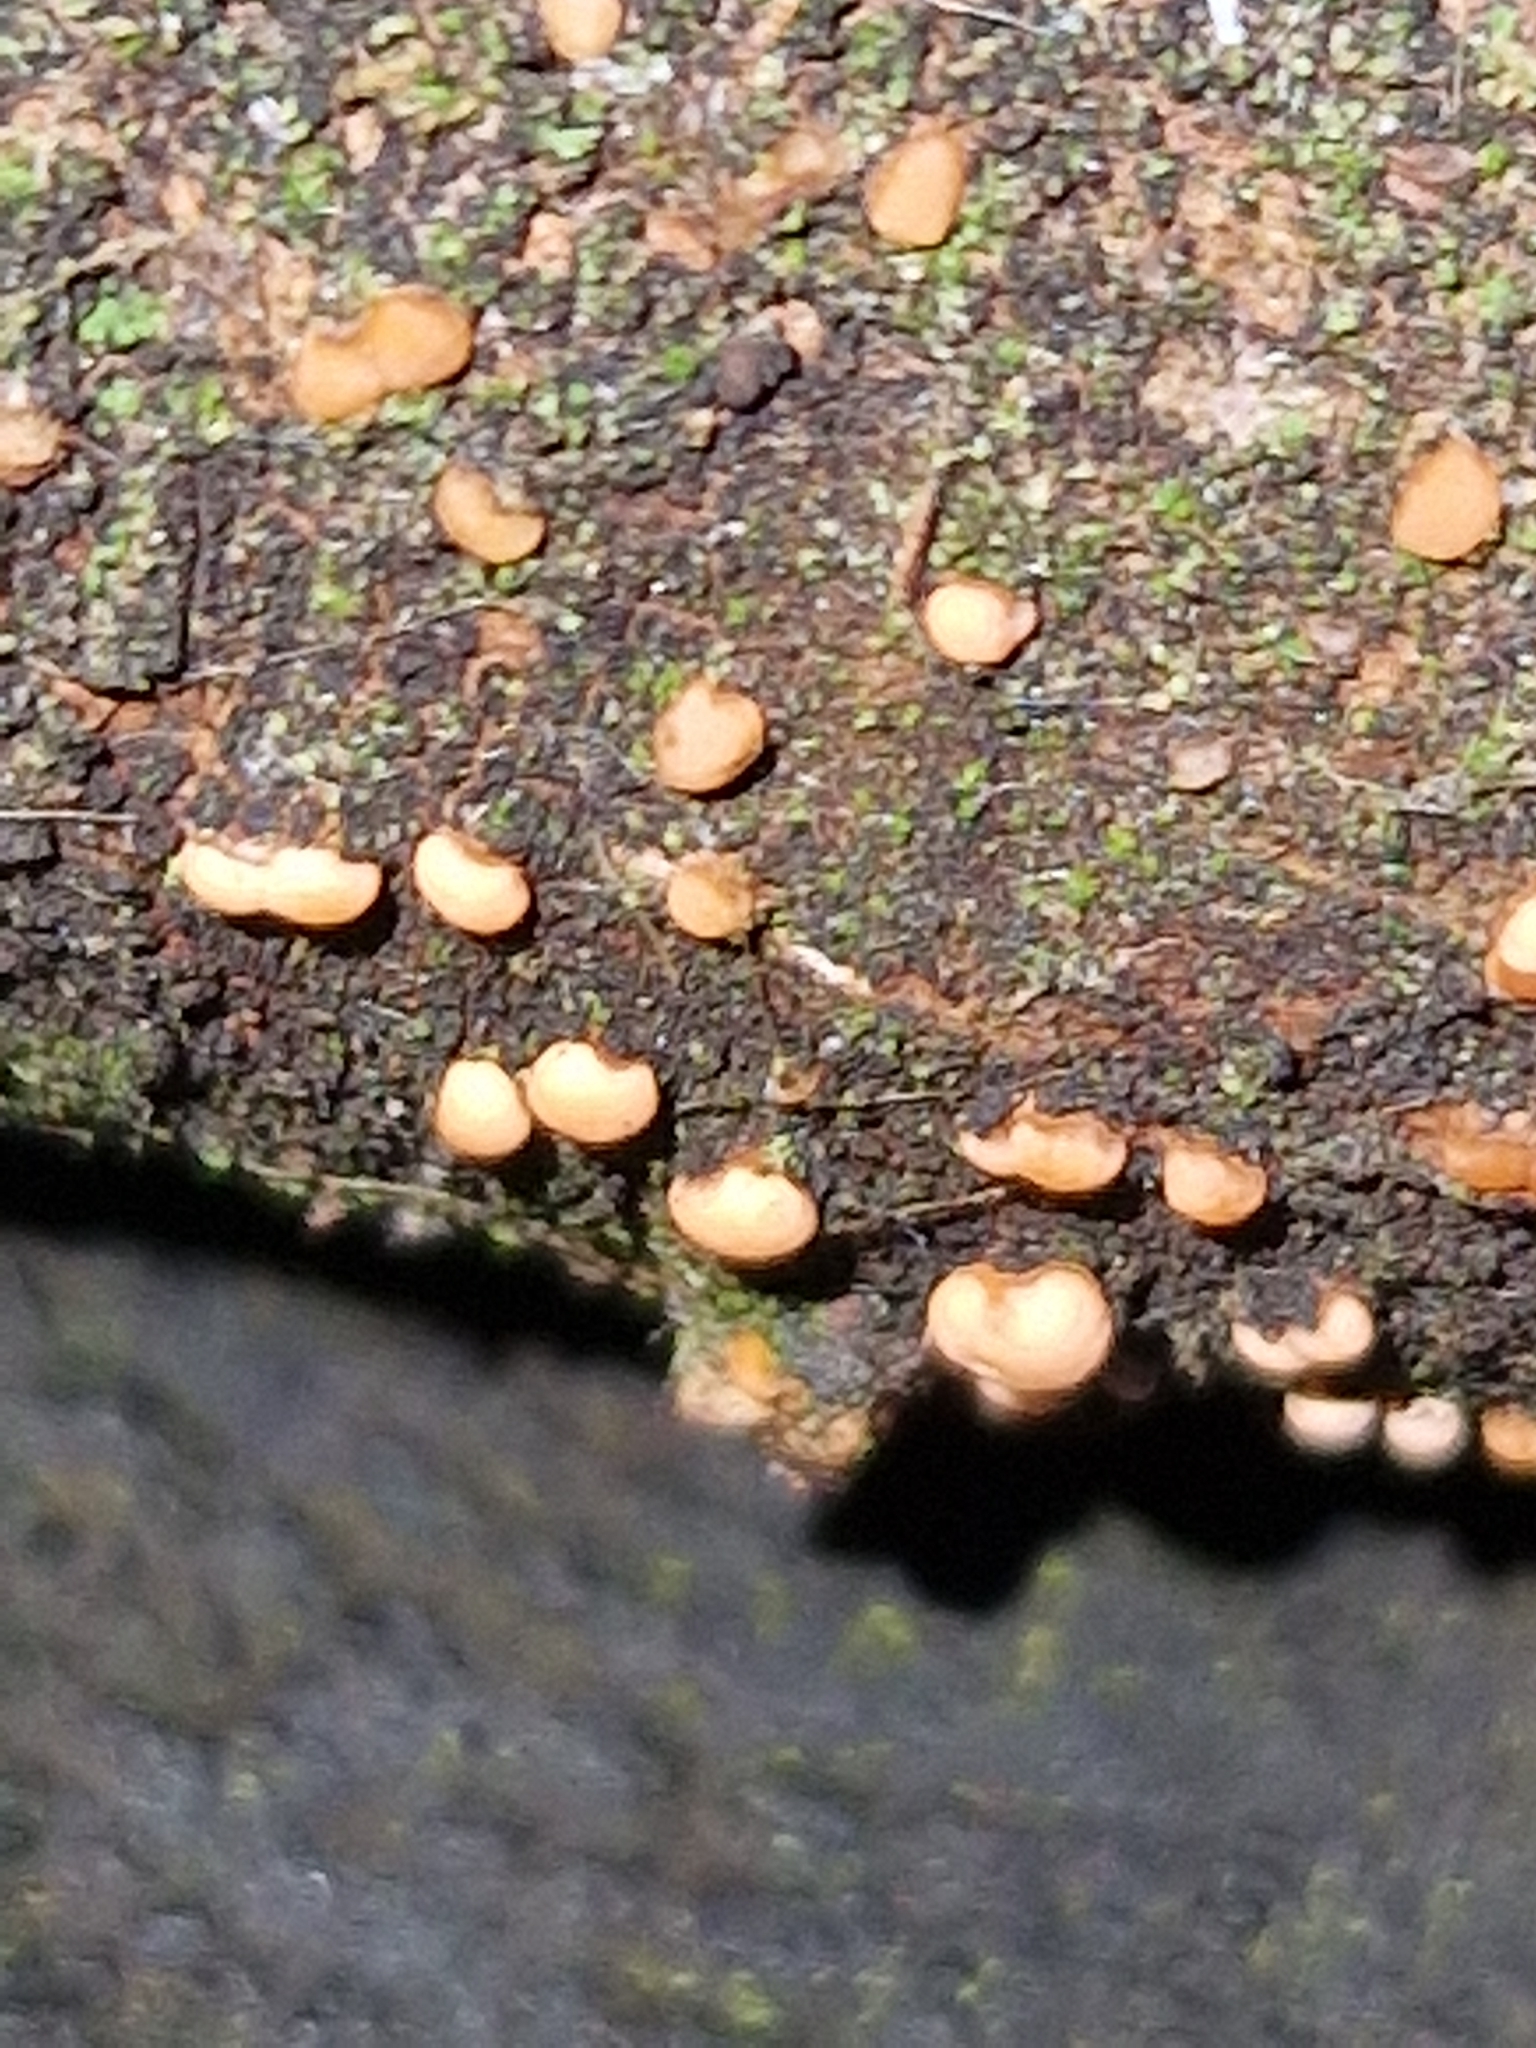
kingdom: Fungi
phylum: Ascomycota
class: Sordariomycetes
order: Hypocreales
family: Nectriaceae
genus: Nectria
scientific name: Nectria cinnabarina
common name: Coral spot
